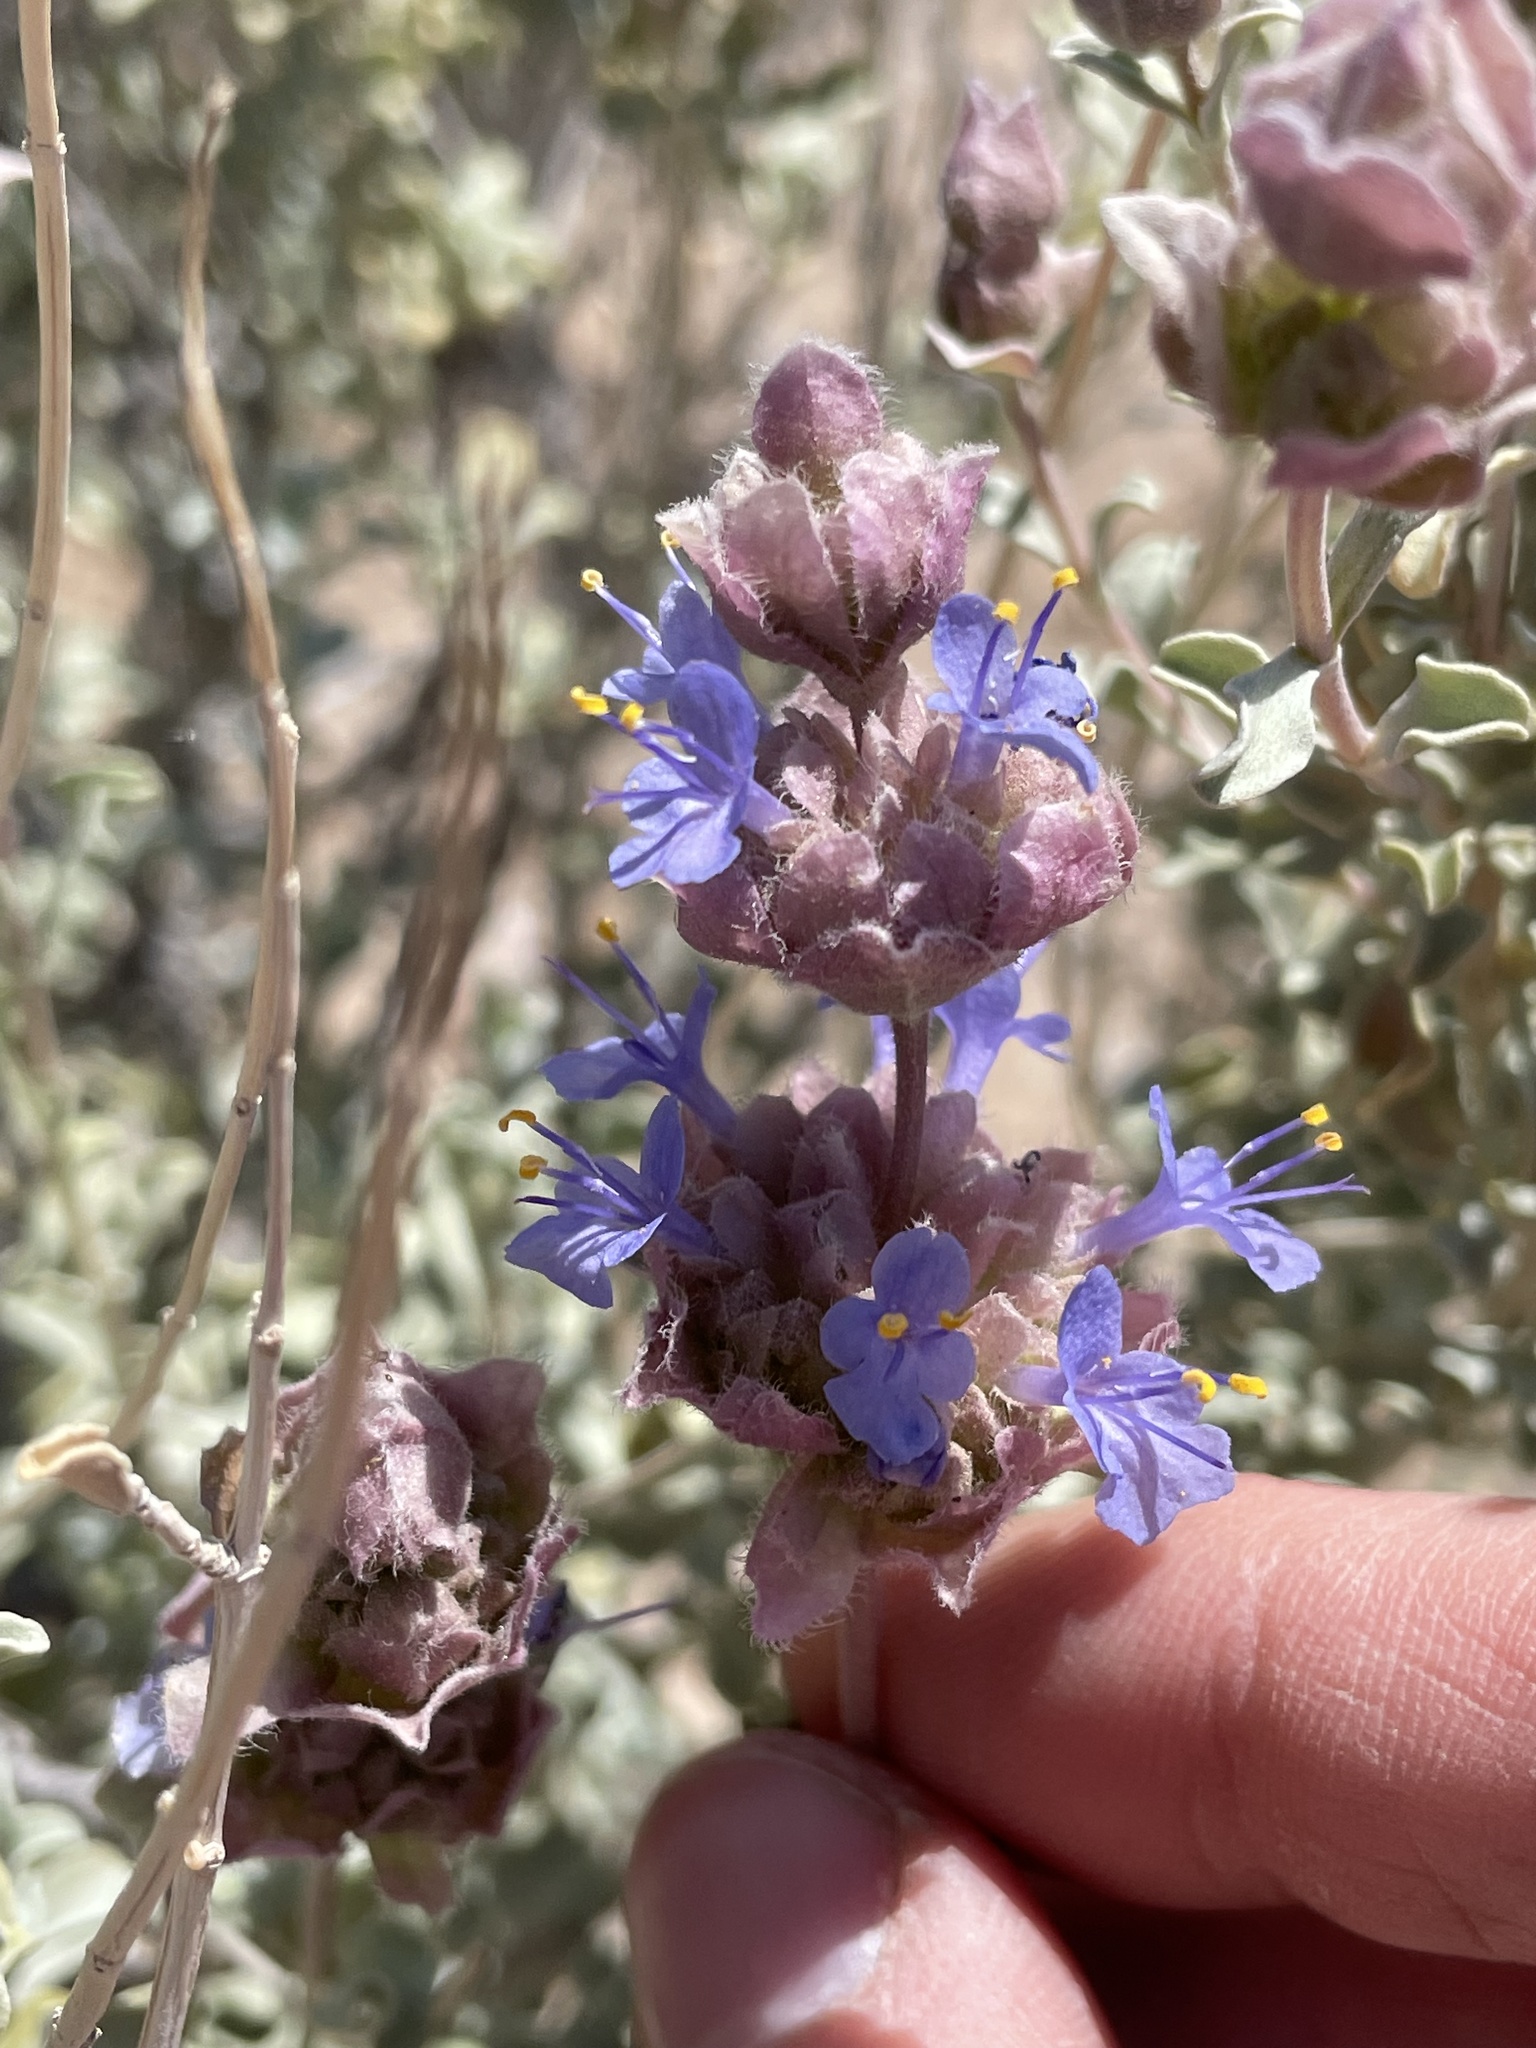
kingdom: Plantae
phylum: Tracheophyta
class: Magnoliopsida
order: Lamiales
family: Lamiaceae
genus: Salvia
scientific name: Salvia dorrii
